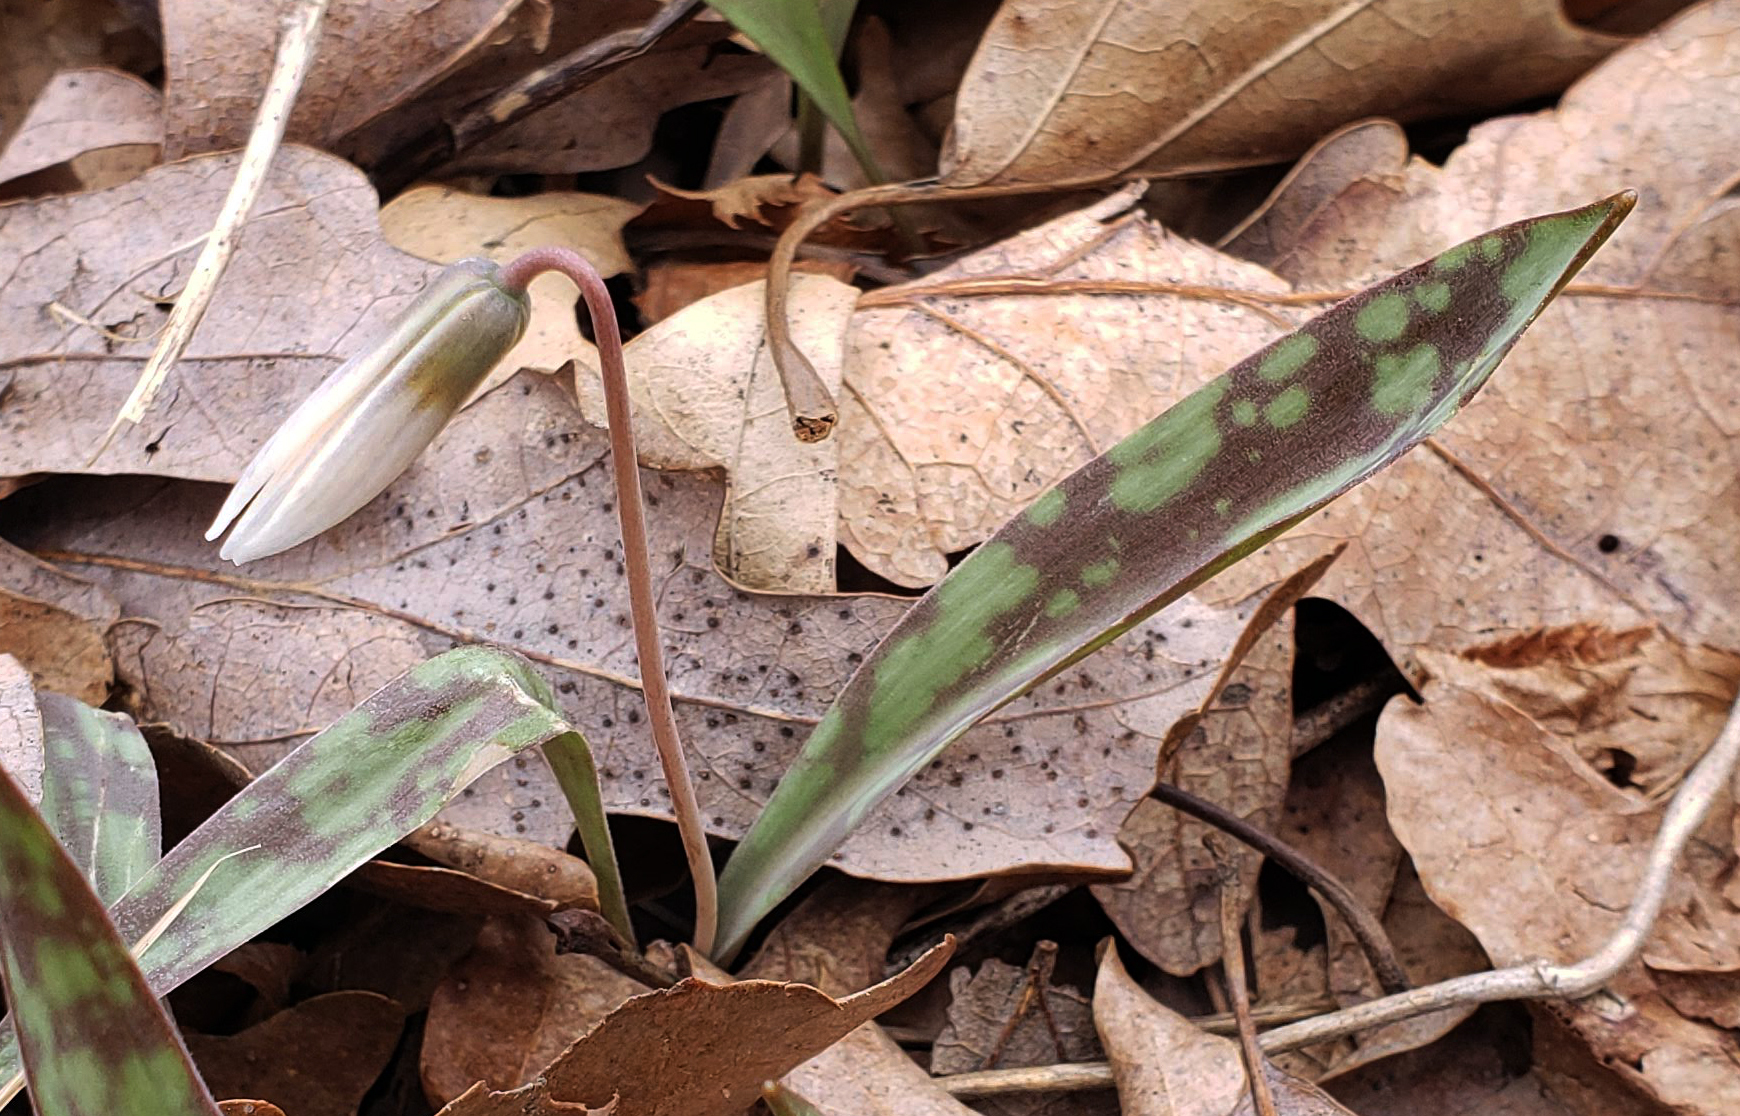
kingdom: Plantae
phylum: Tracheophyta
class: Liliopsida
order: Liliales
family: Liliaceae
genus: Erythronium
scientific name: Erythronium albidum
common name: White trout-lily
